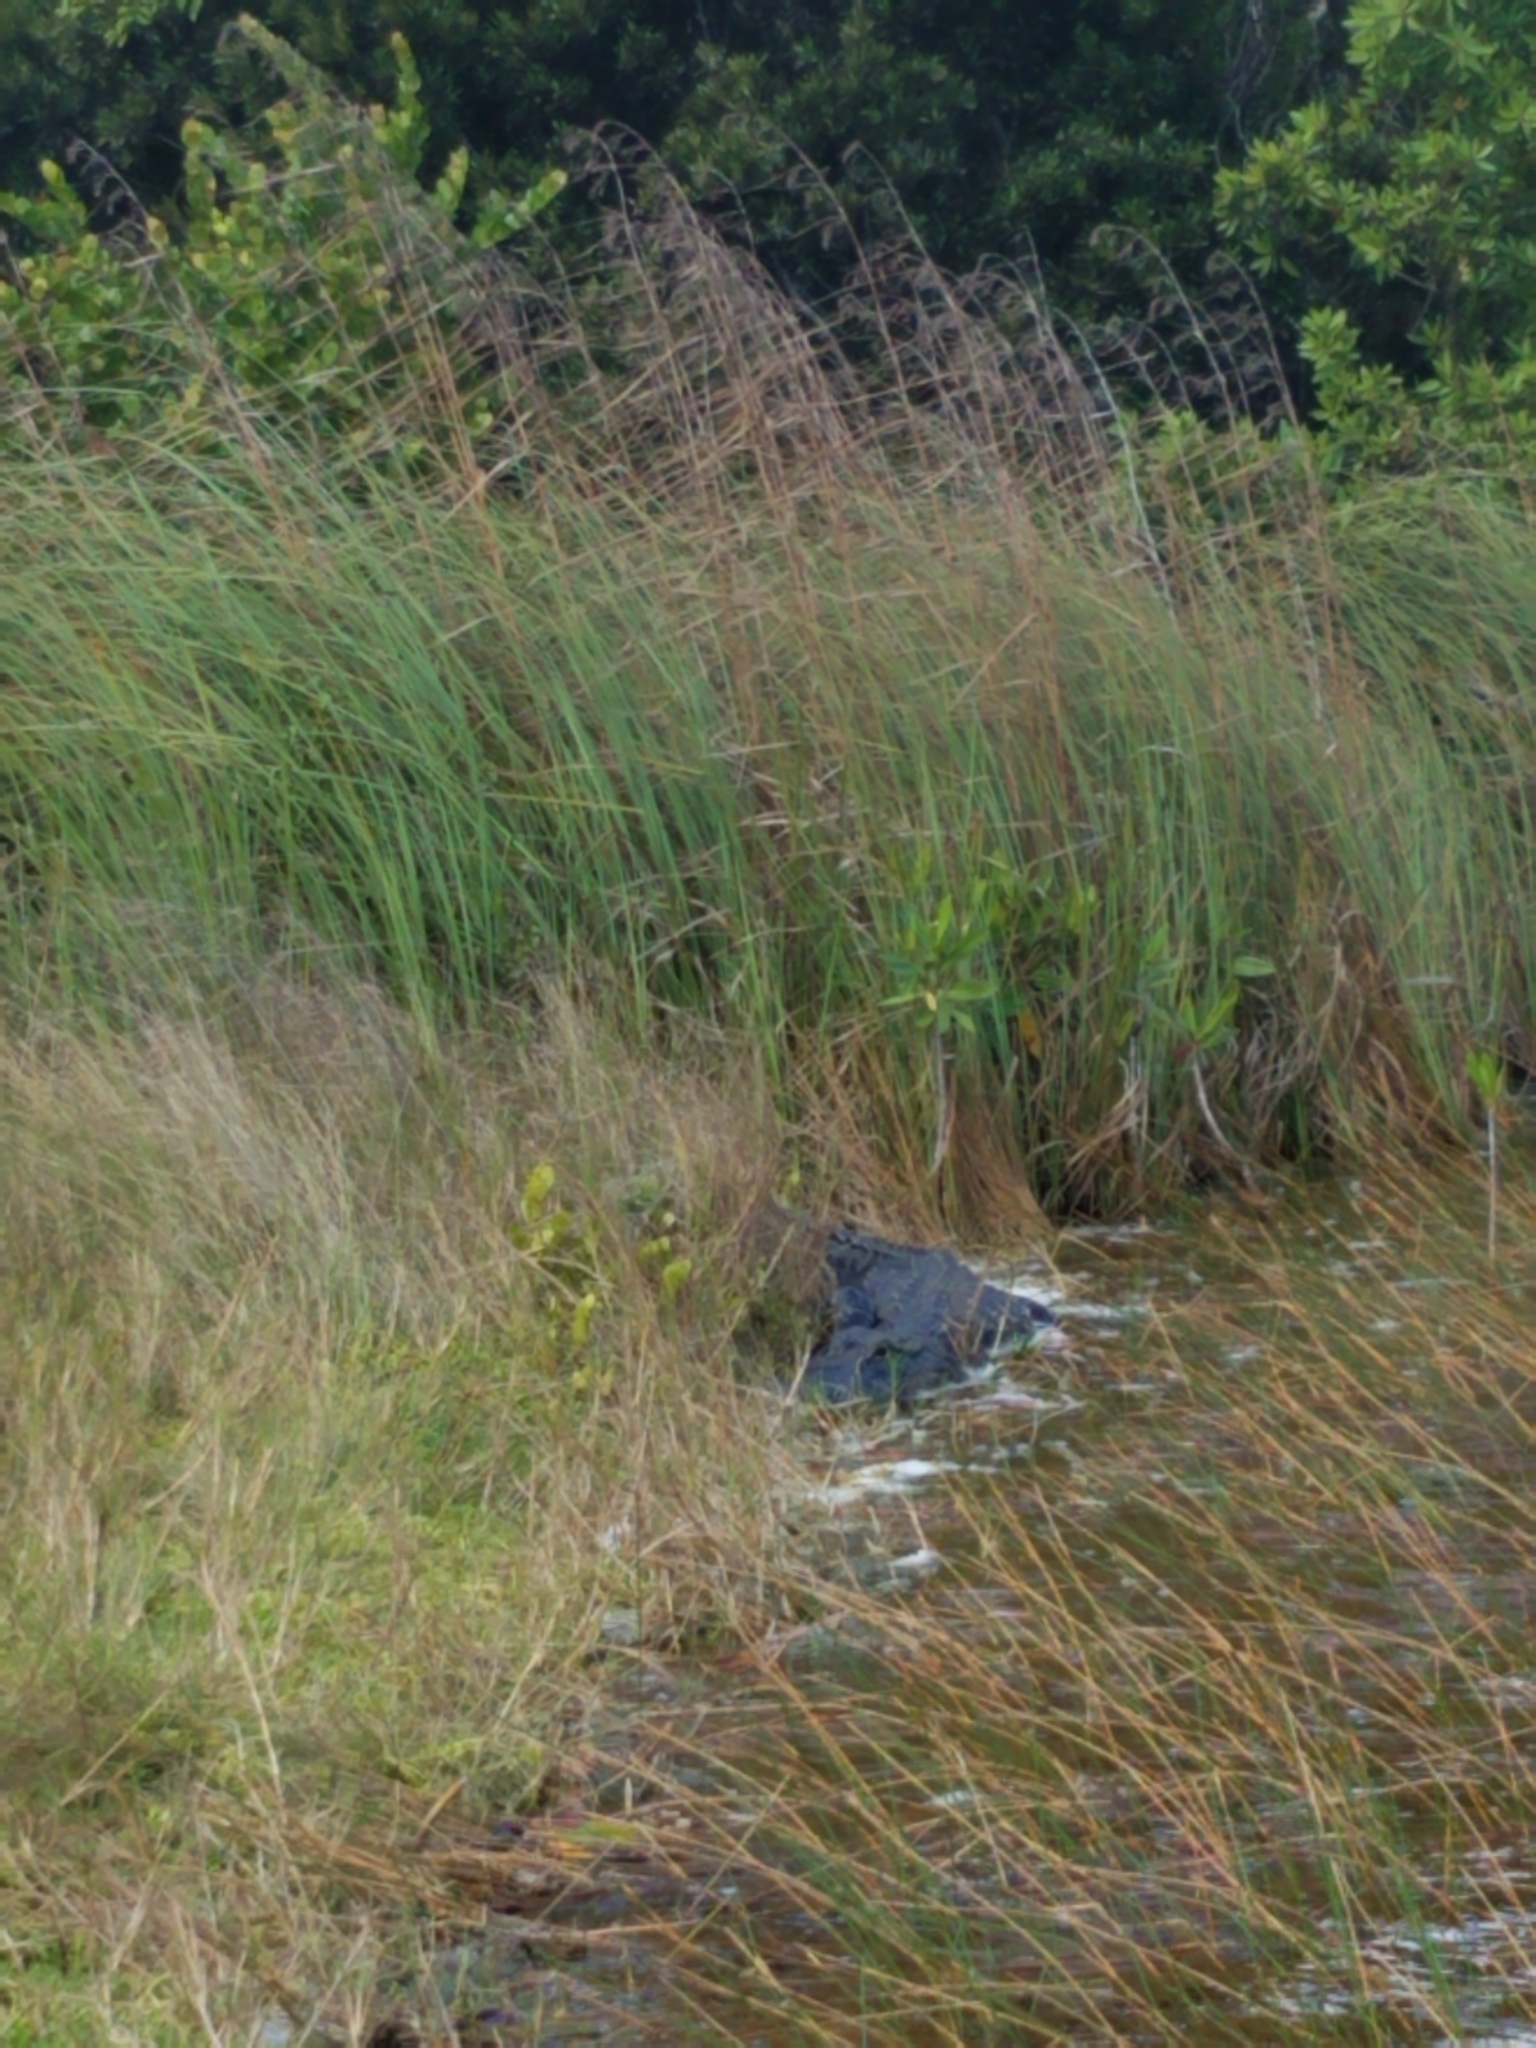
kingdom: Animalia
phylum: Chordata
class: Crocodylia
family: Alligatoridae
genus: Alligator
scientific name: Alligator mississippiensis
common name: American alligator
